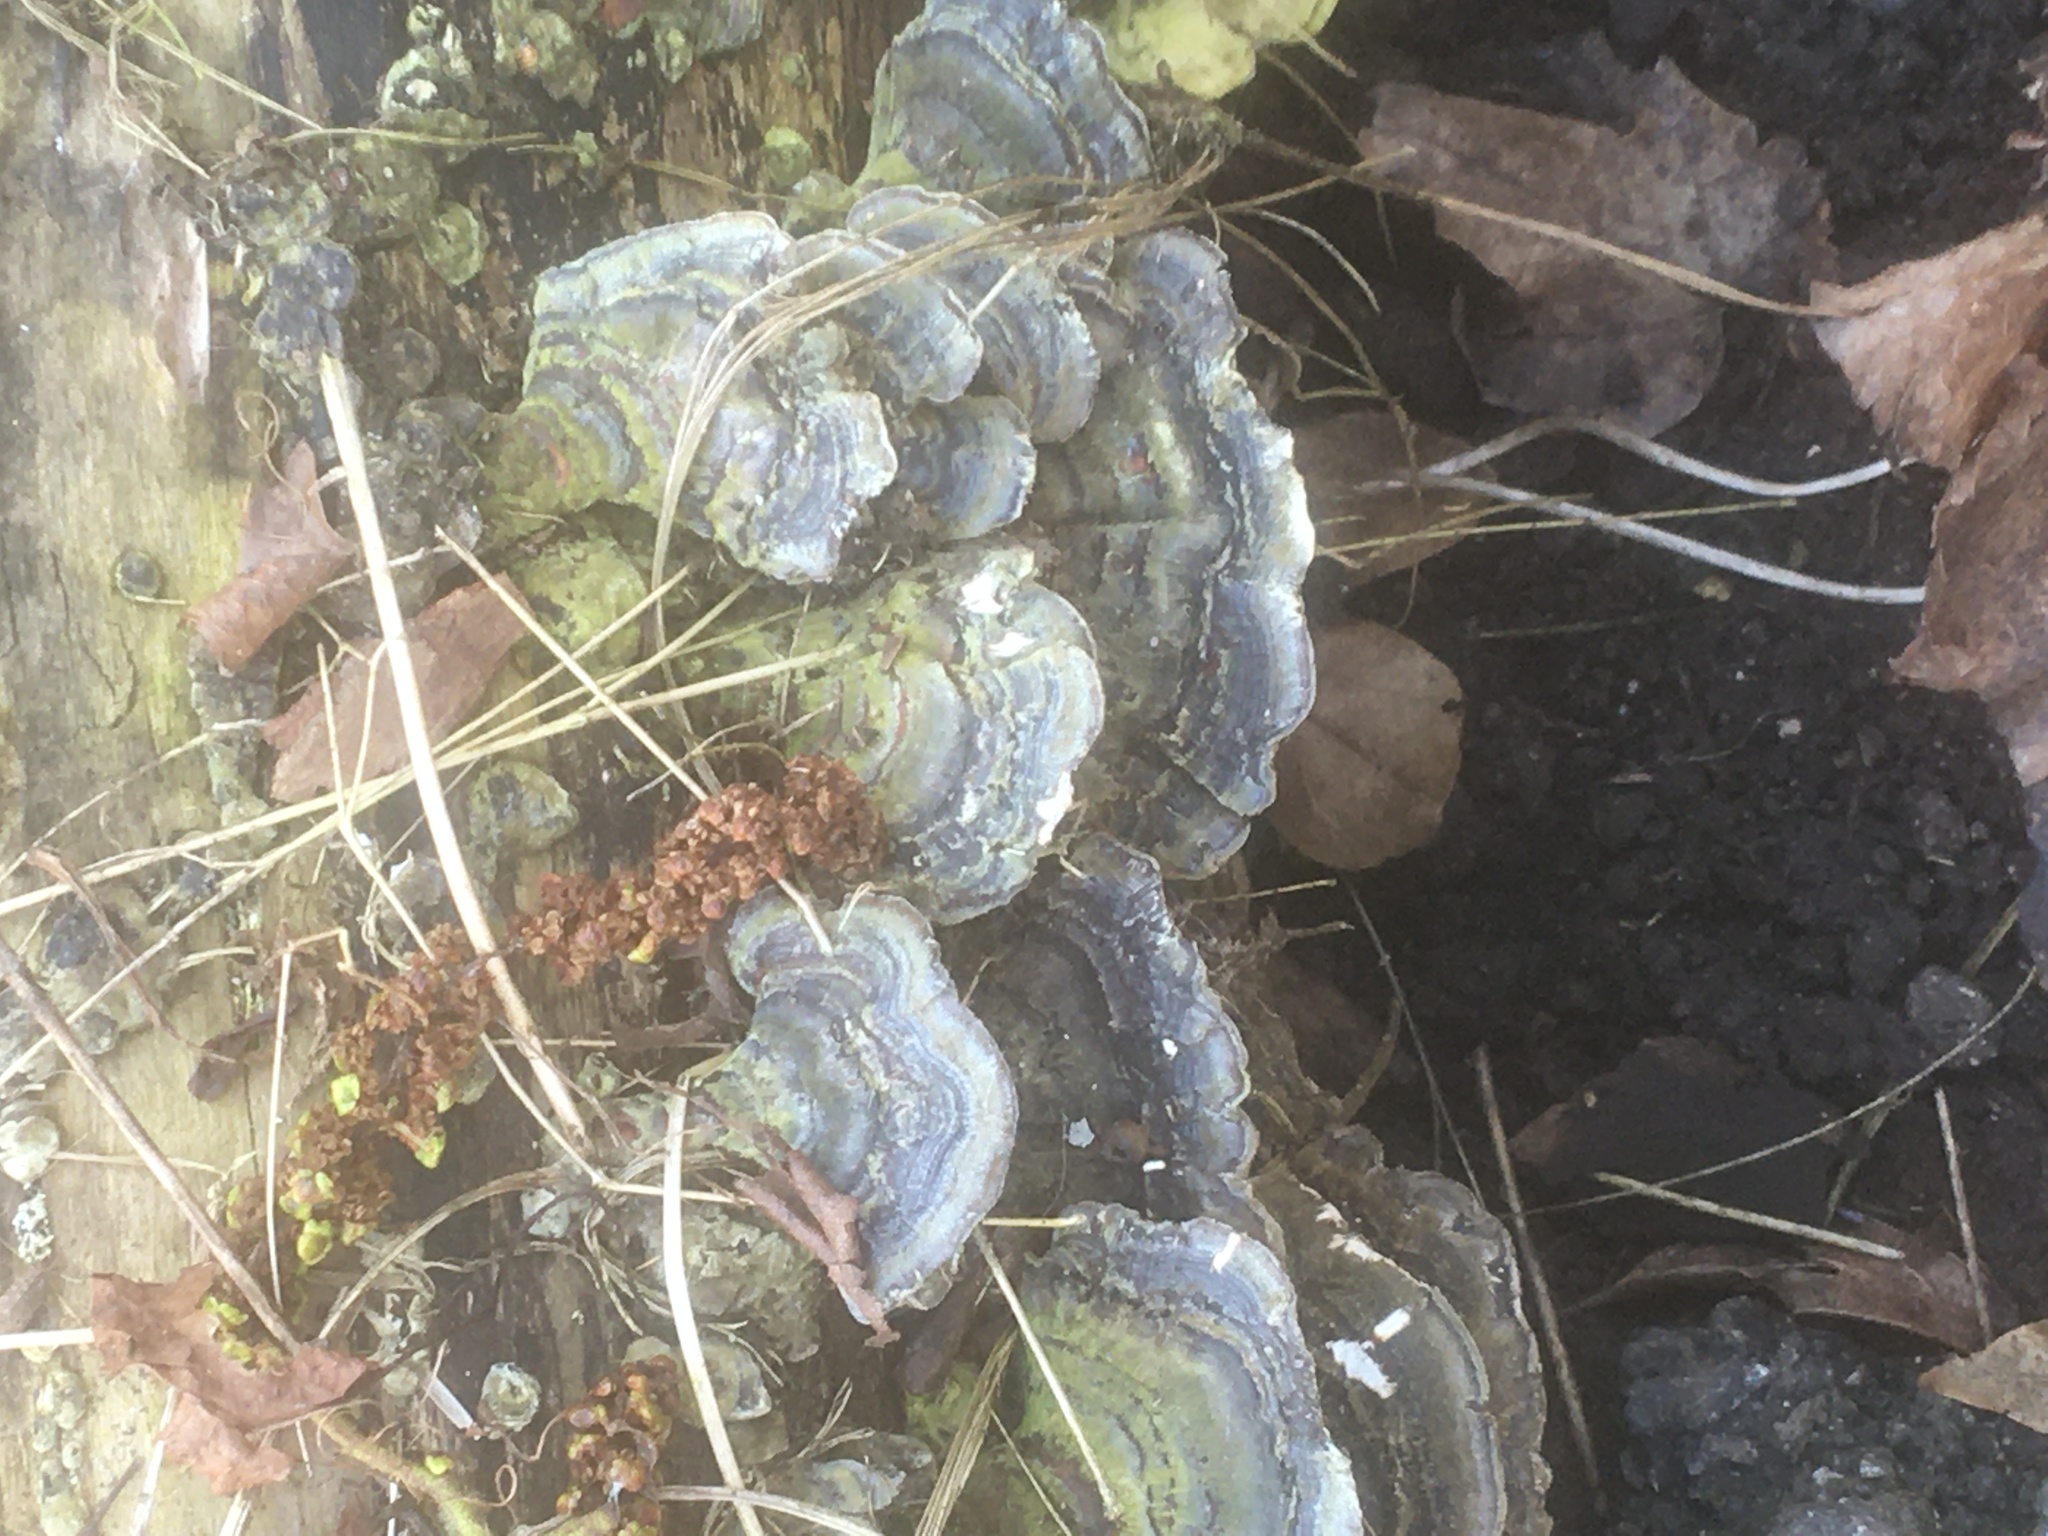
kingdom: Fungi
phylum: Basidiomycota
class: Agaricomycetes
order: Polyporales
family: Polyporaceae
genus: Trametes
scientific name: Trametes versicolor
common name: Turkeytail
